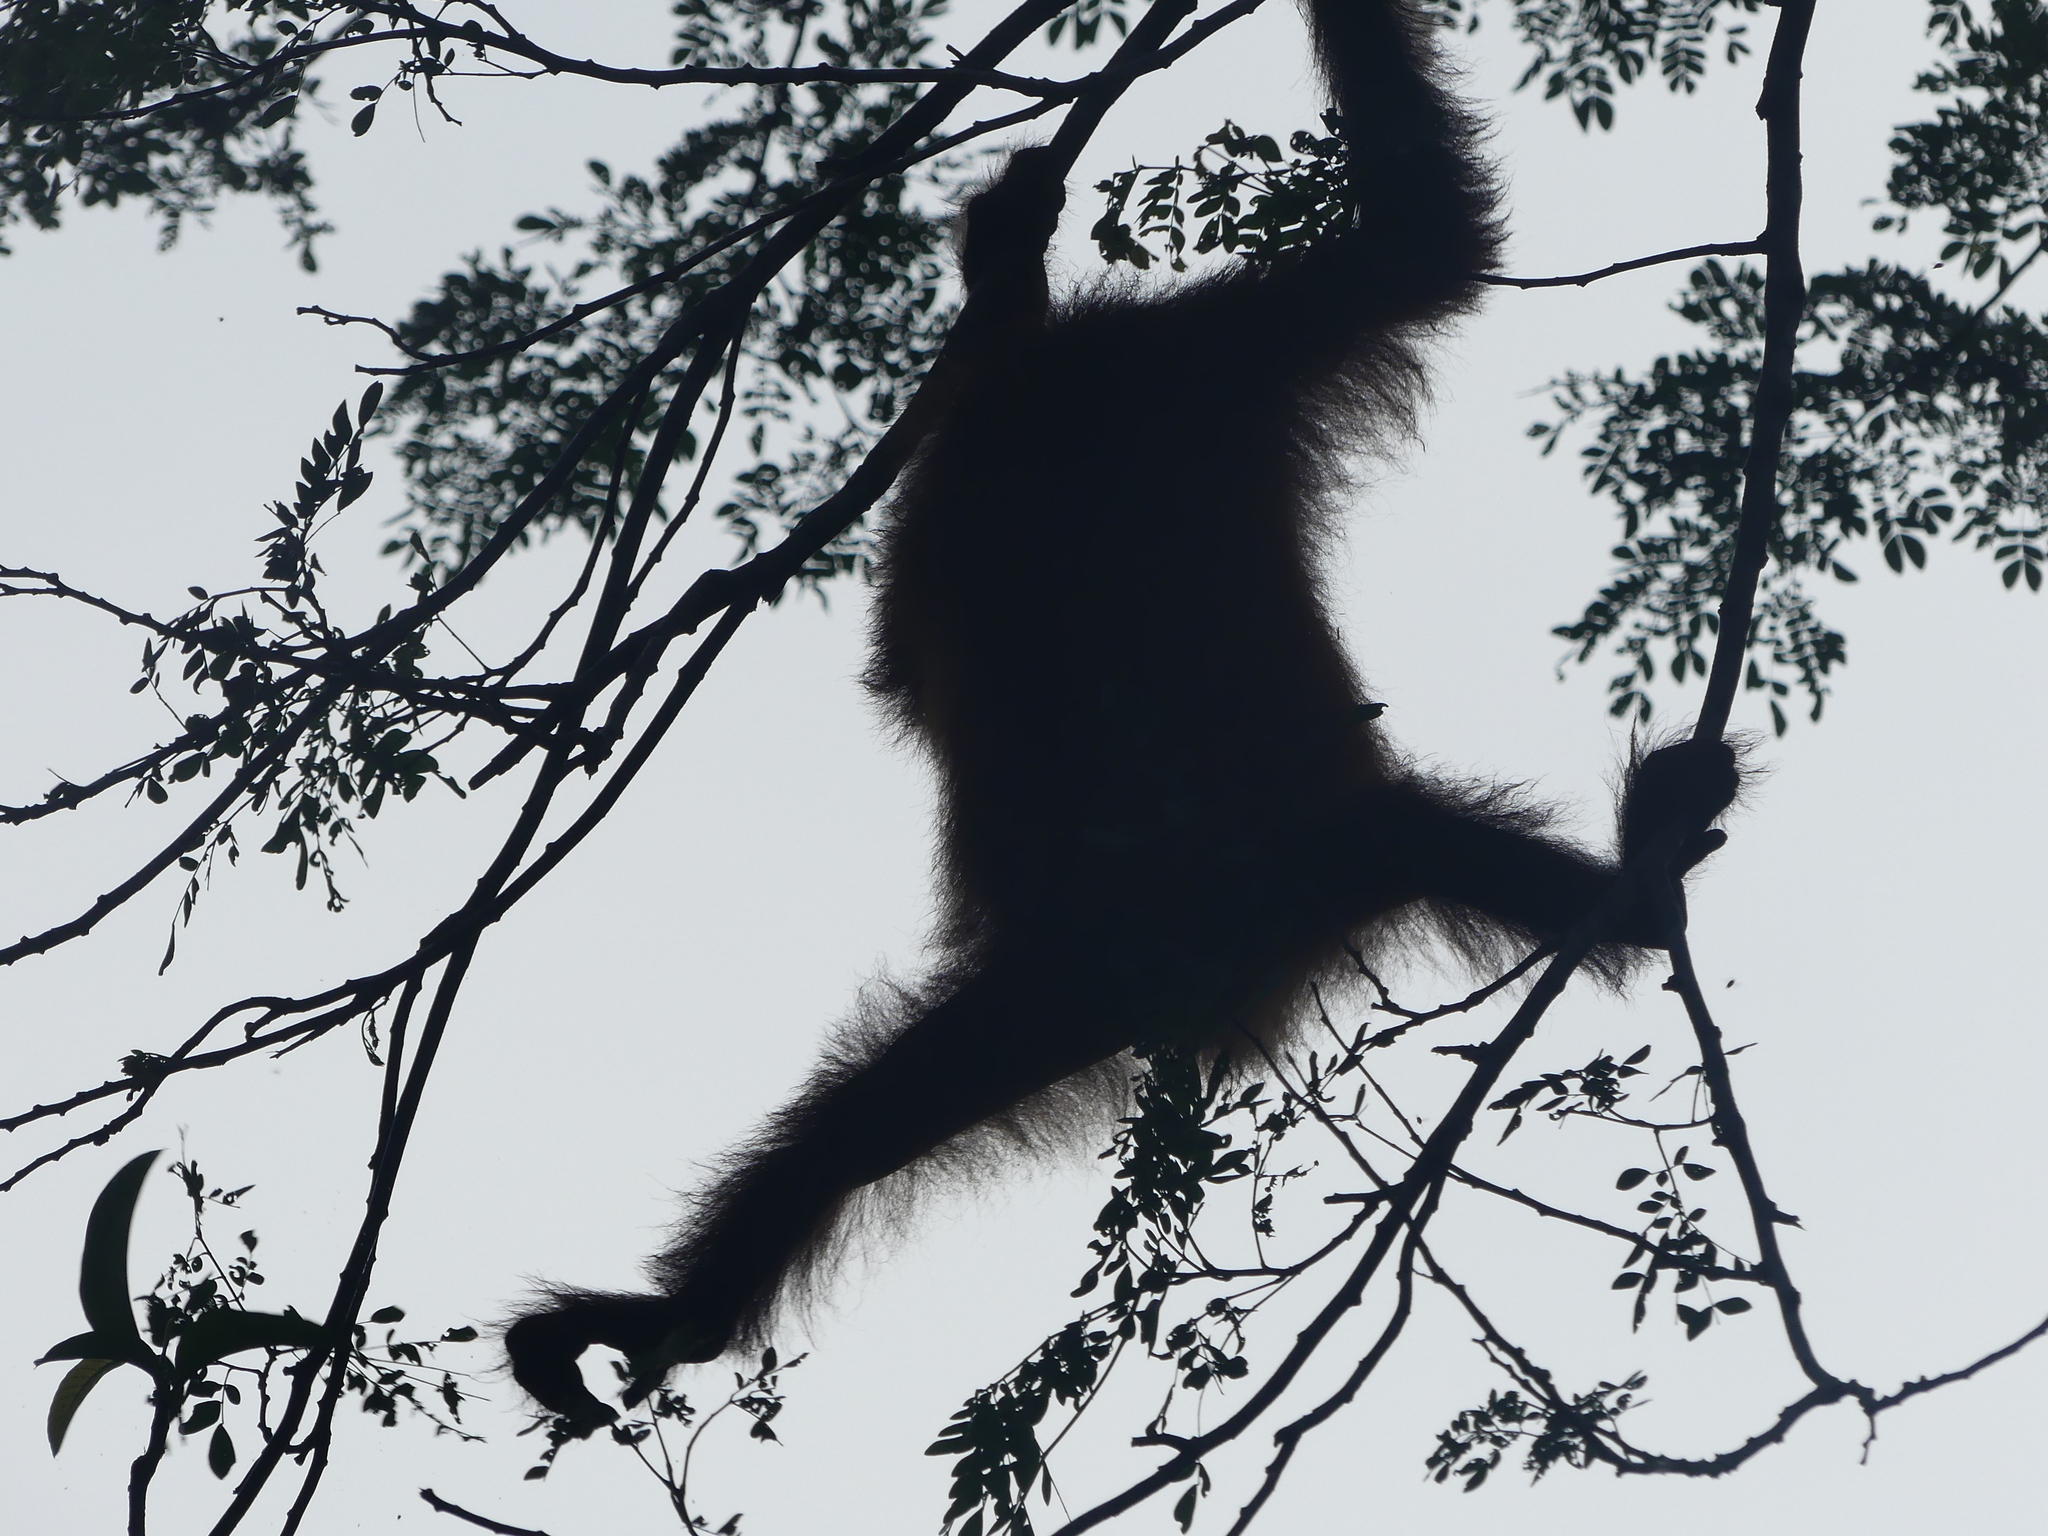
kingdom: Animalia
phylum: Chordata
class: Mammalia
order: Primates
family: Hominidae
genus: Pongo
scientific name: Pongo pygmaeus
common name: Bornean orangutan
